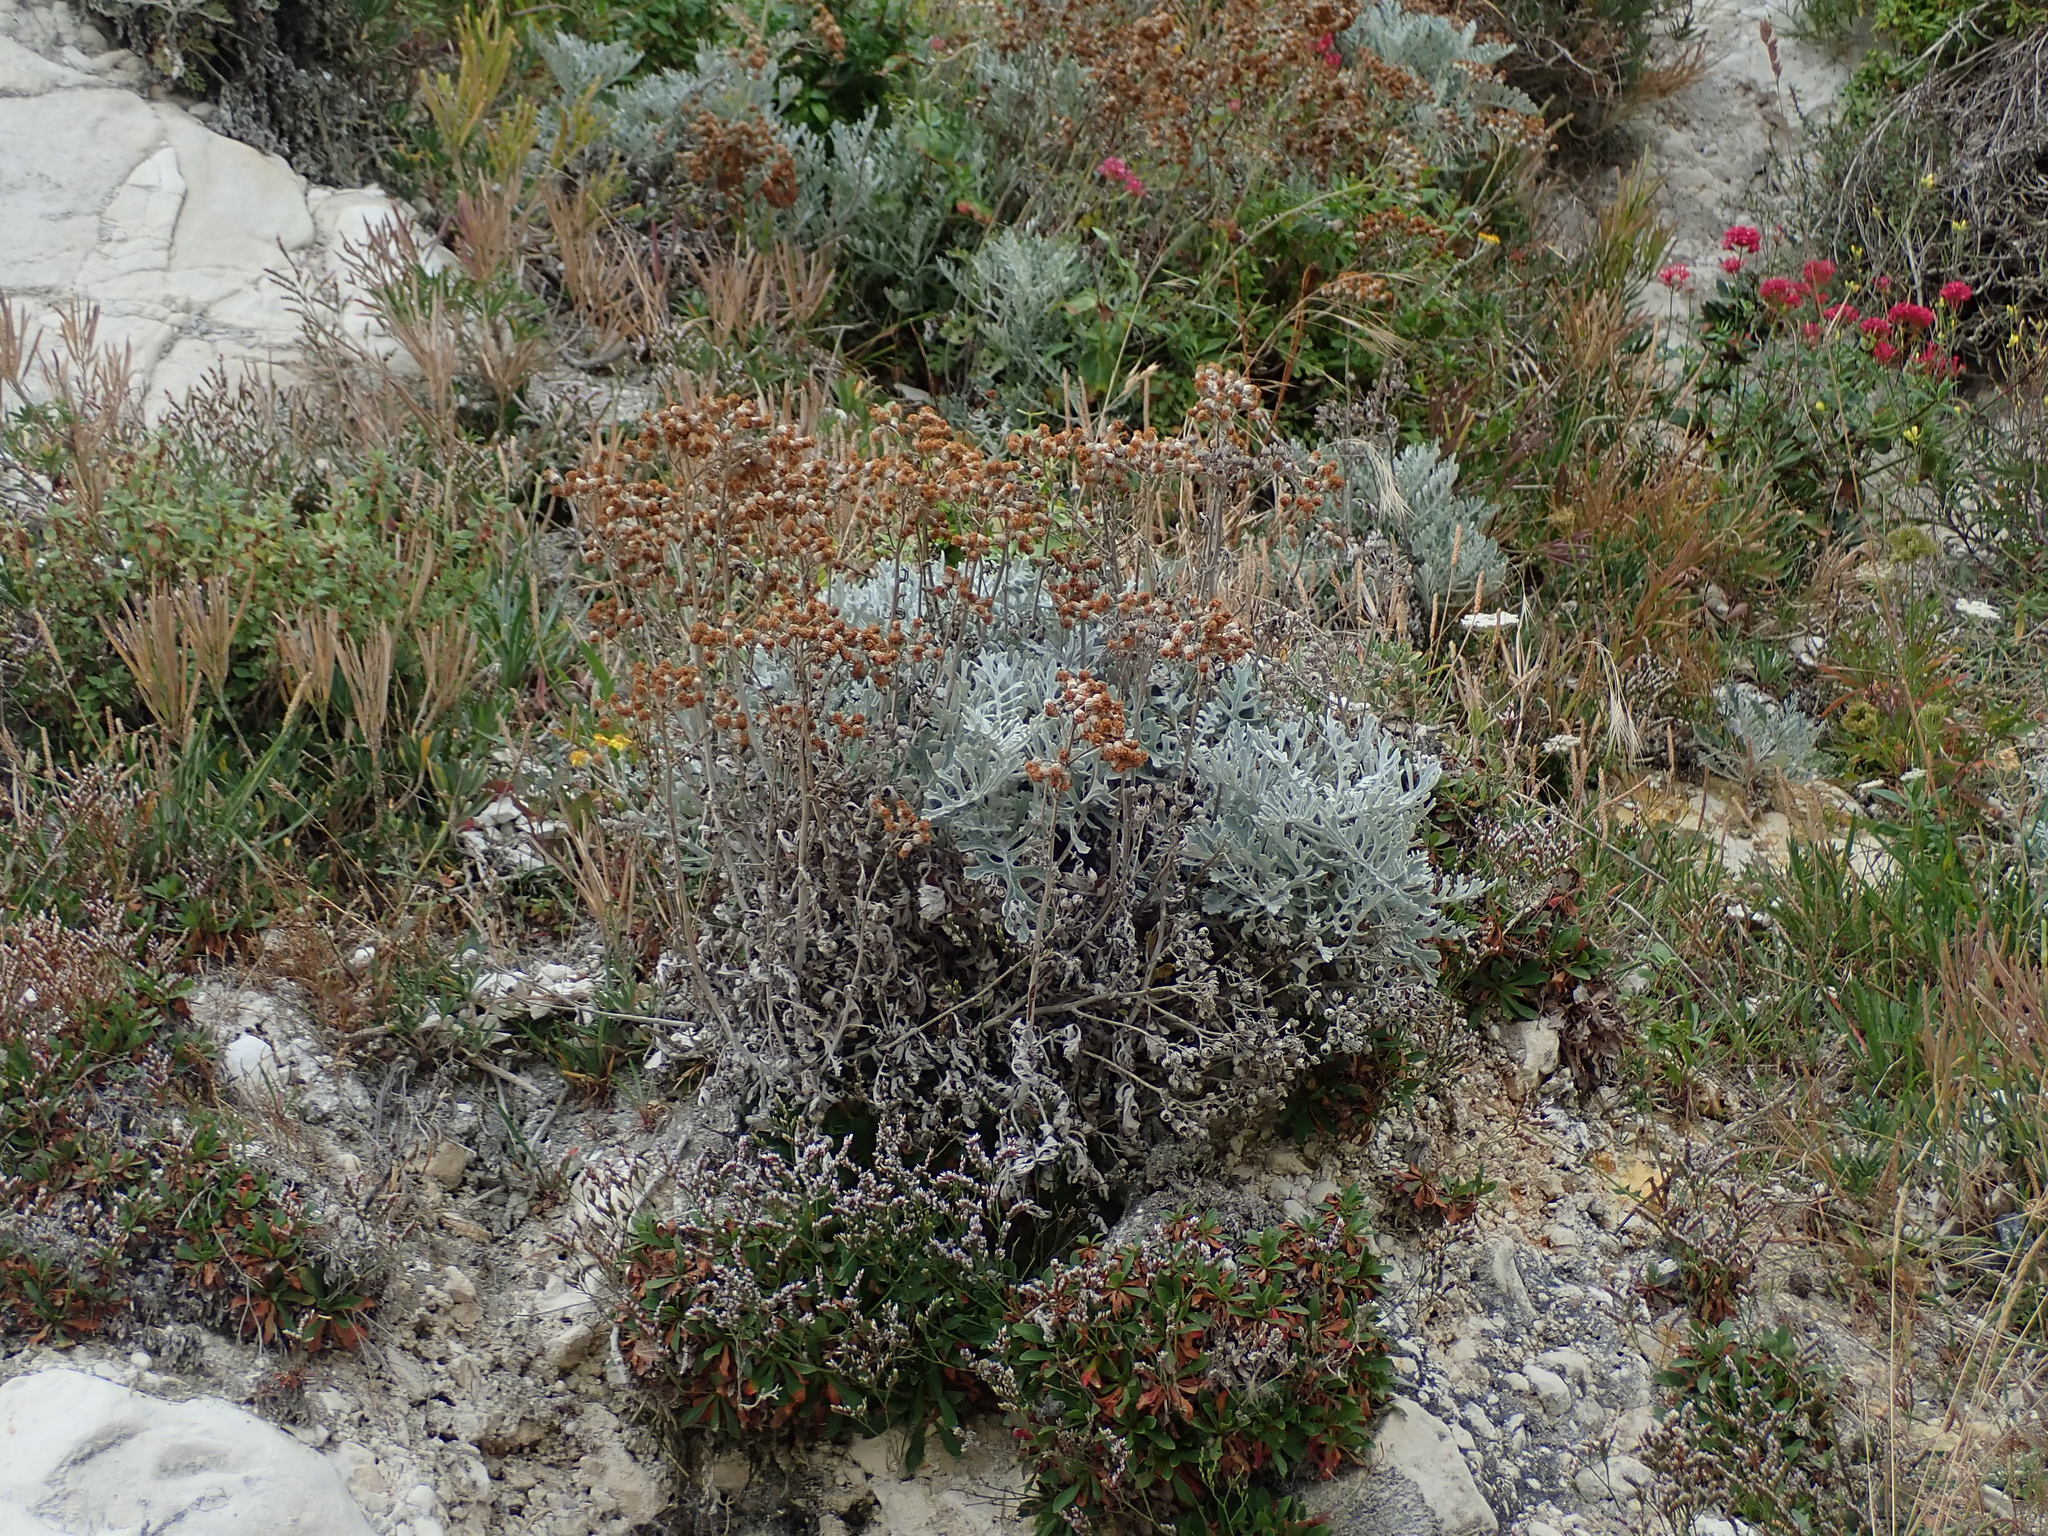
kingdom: Plantae
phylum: Tracheophyta
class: Magnoliopsida
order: Asterales
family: Asteraceae
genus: Jacobaea
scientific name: Jacobaea maritima
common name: Silver ragwort
